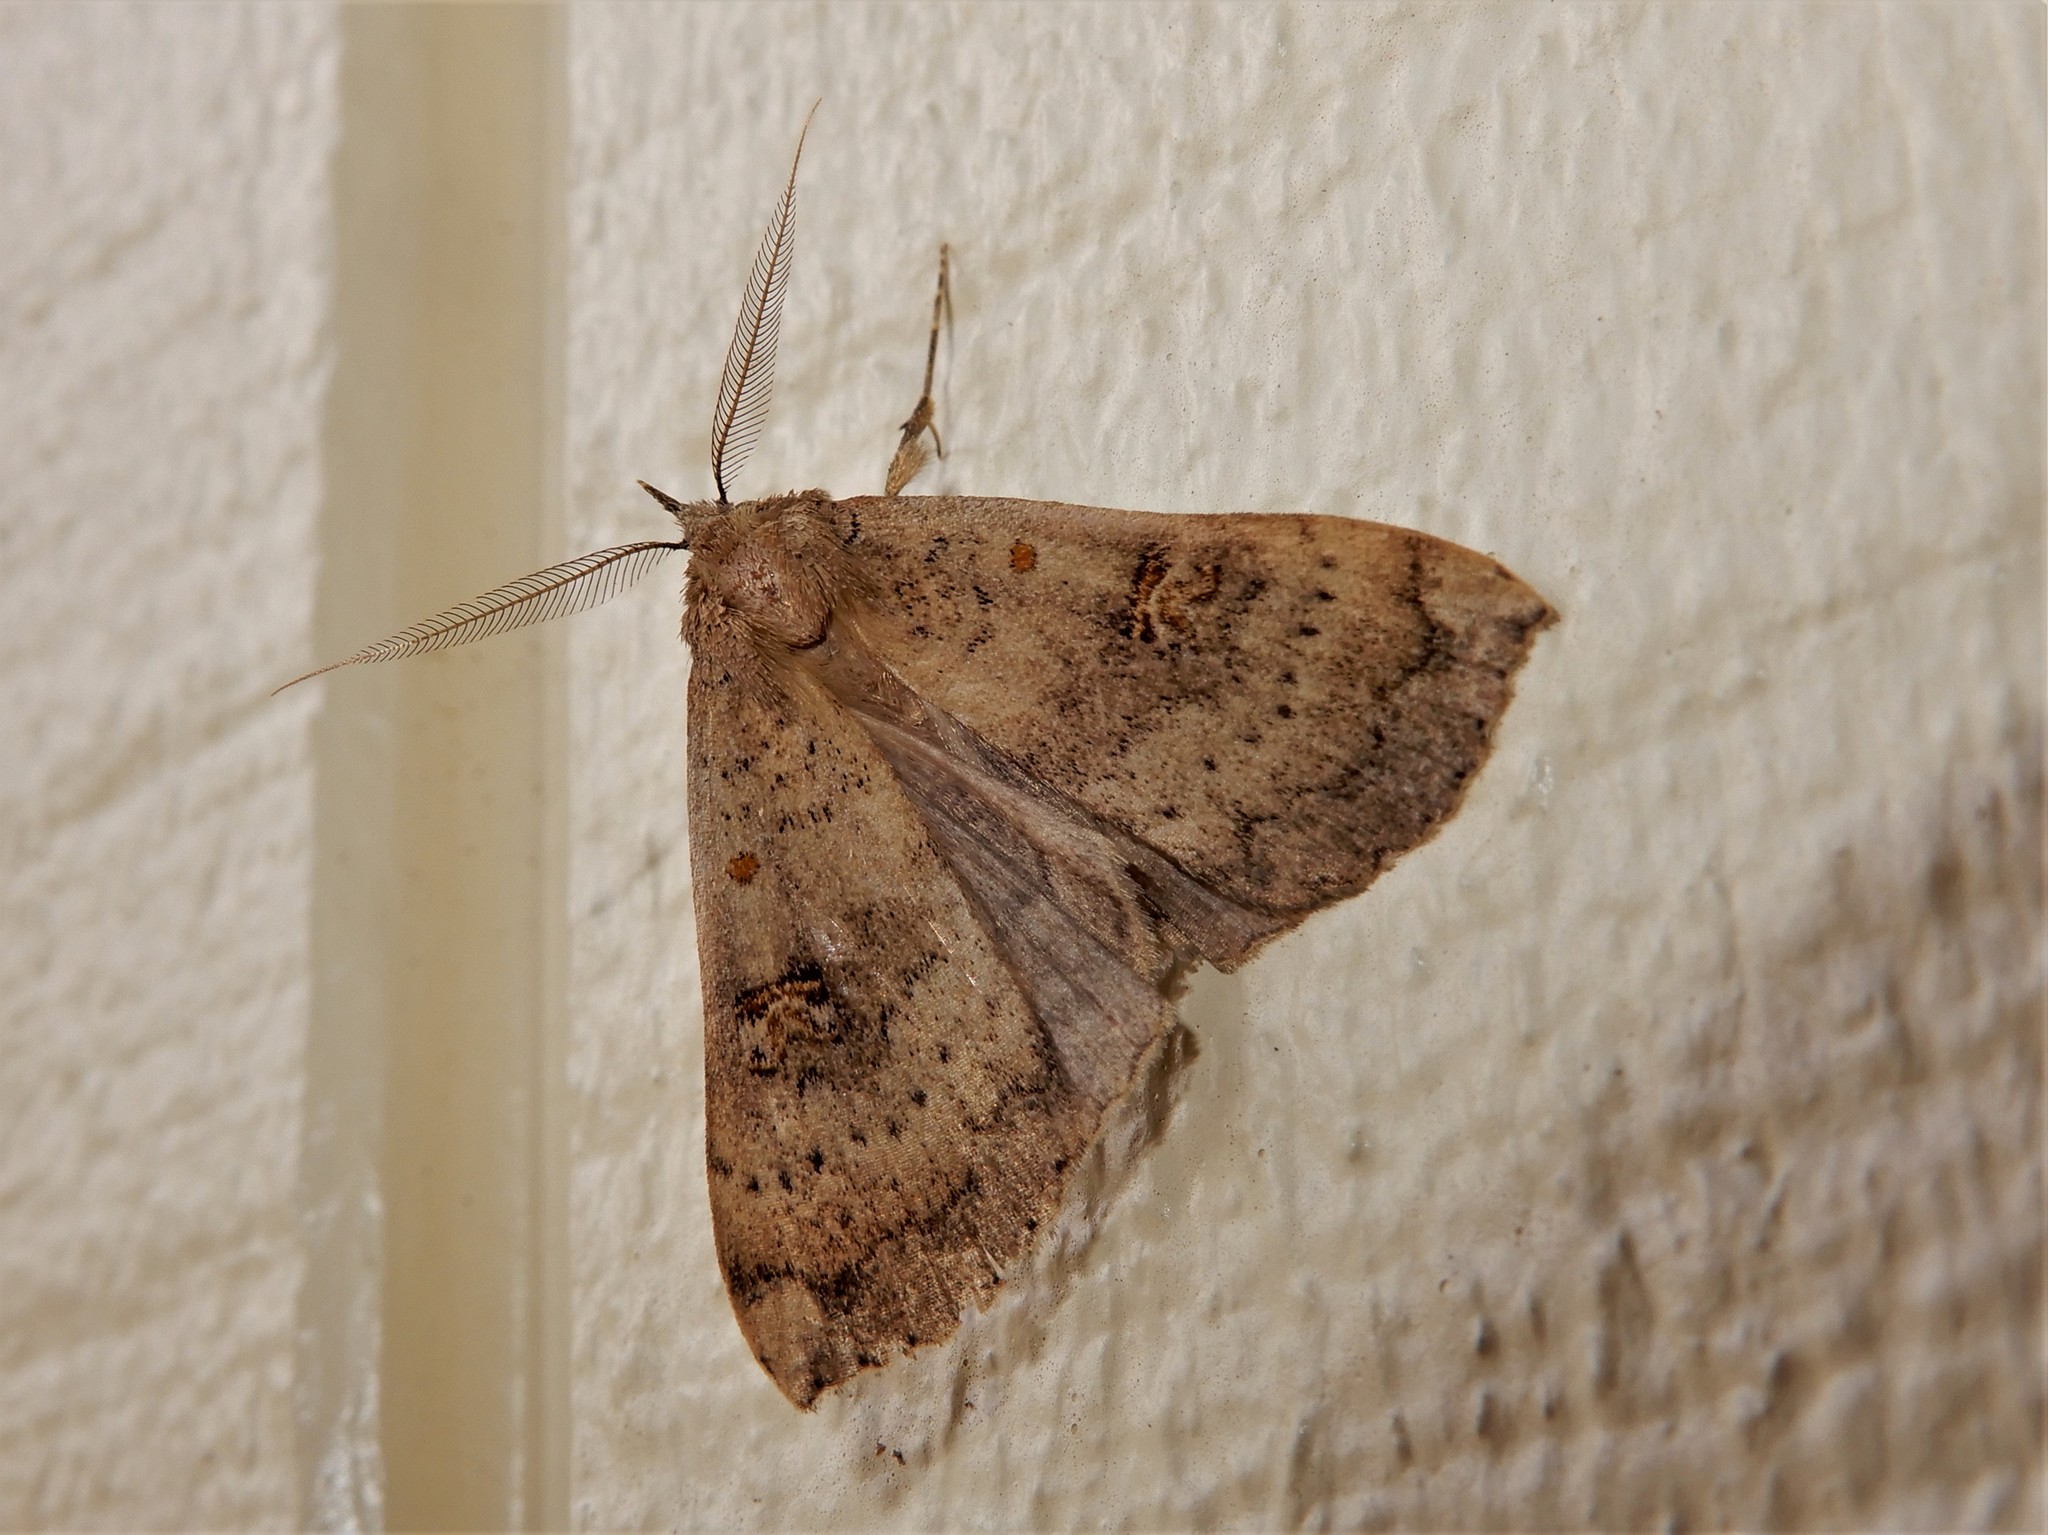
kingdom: Animalia
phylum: Arthropoda
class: Insecta
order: Lepidoptera
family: Erebidae
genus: Rhapsa
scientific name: Rhapsa scotosialis
